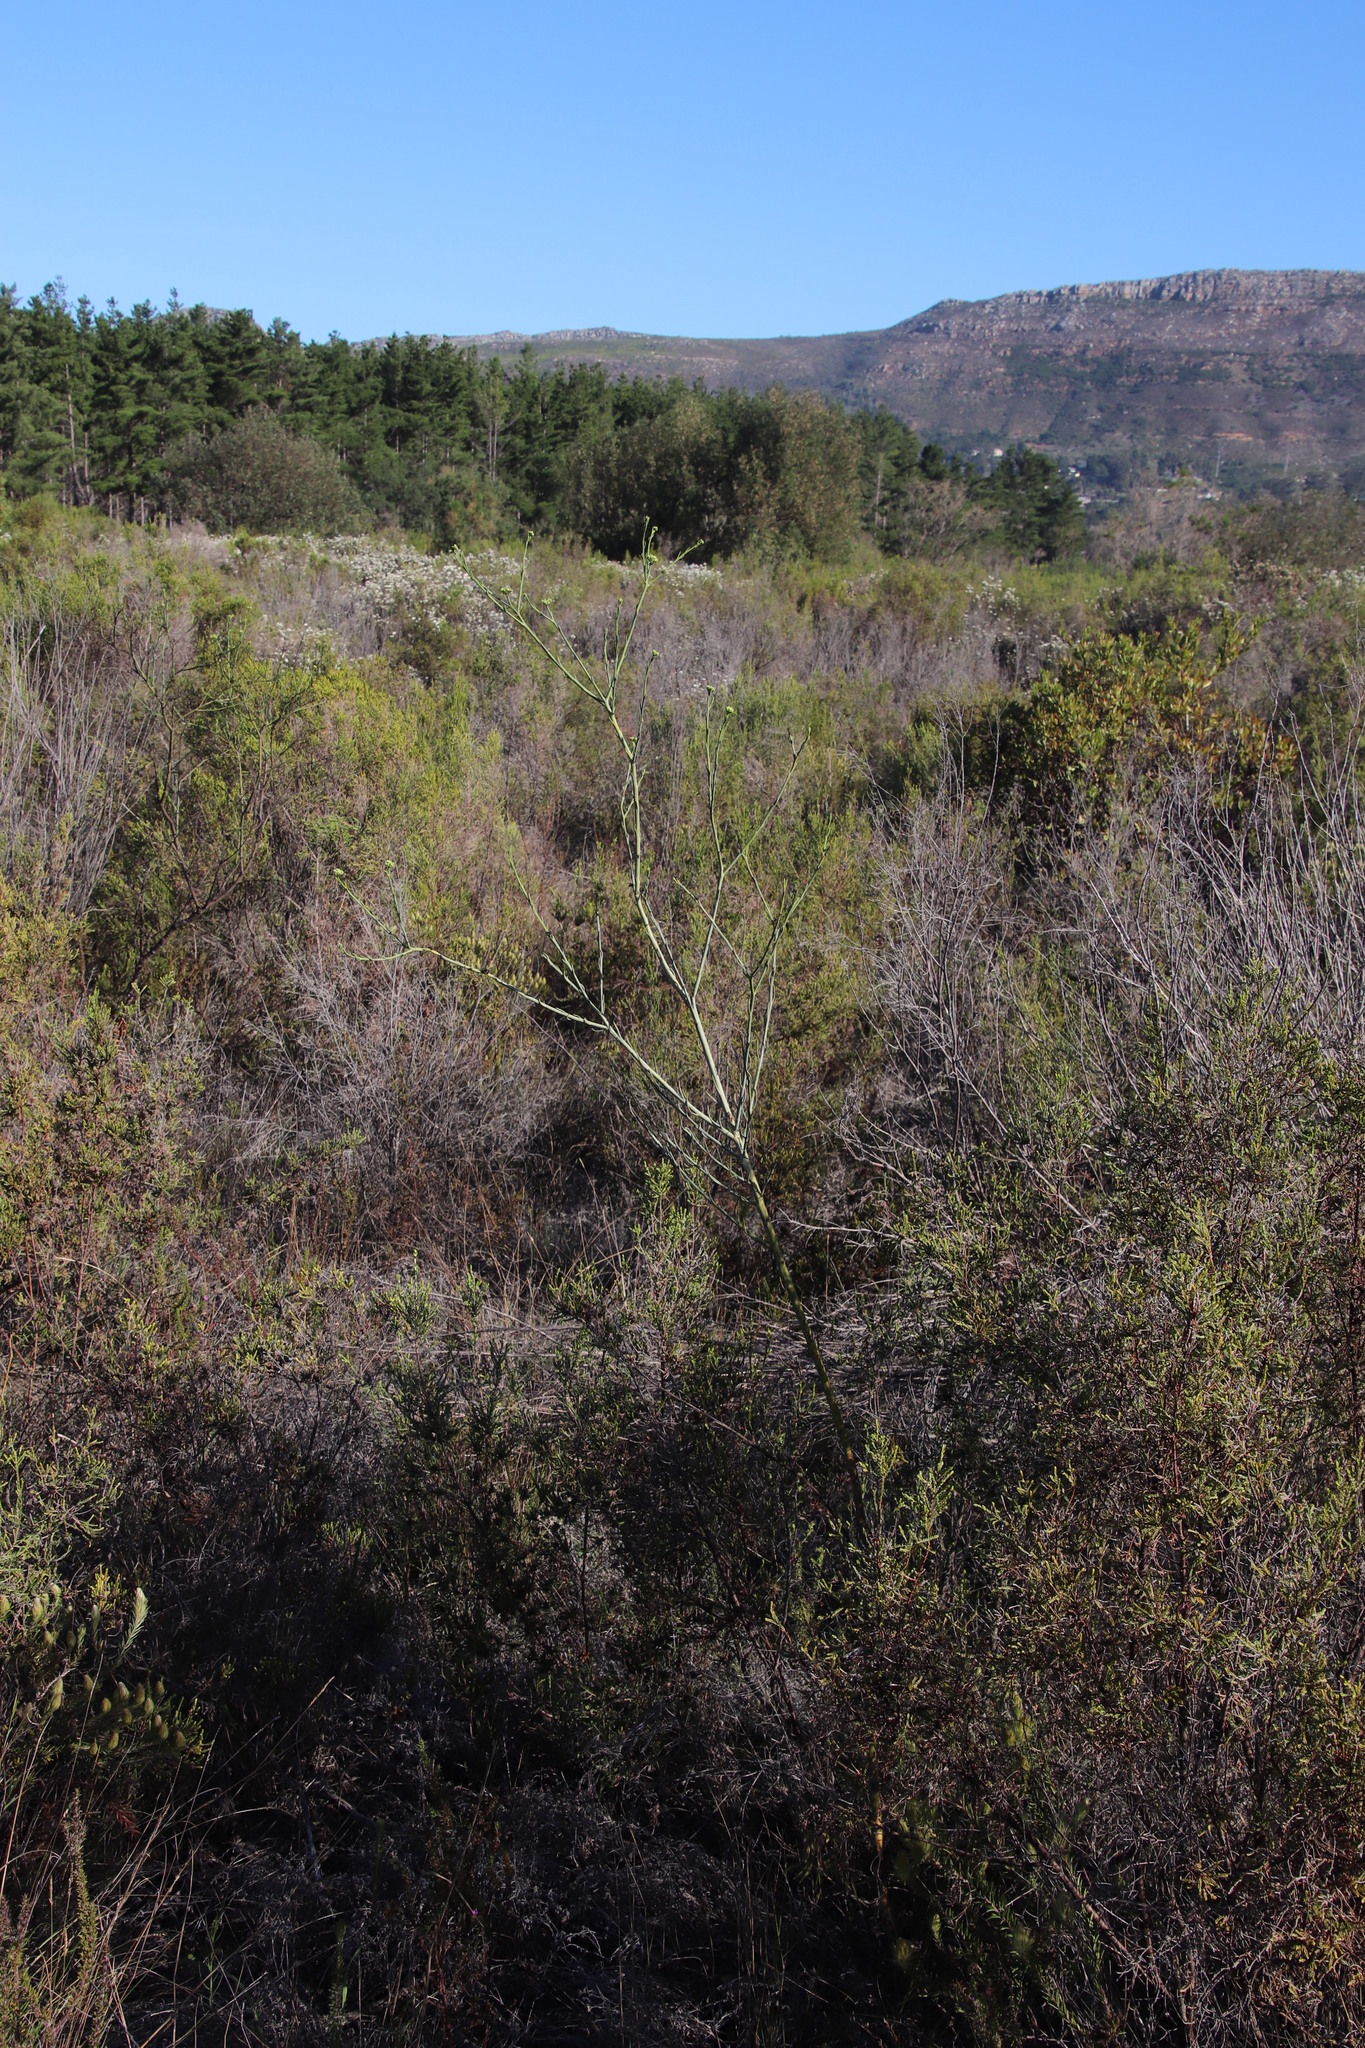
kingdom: Plantae
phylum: Tracheophyta
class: Magnoliopsida
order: Santalales
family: Thesiaceae
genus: Thesium
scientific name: Thesium strictum
